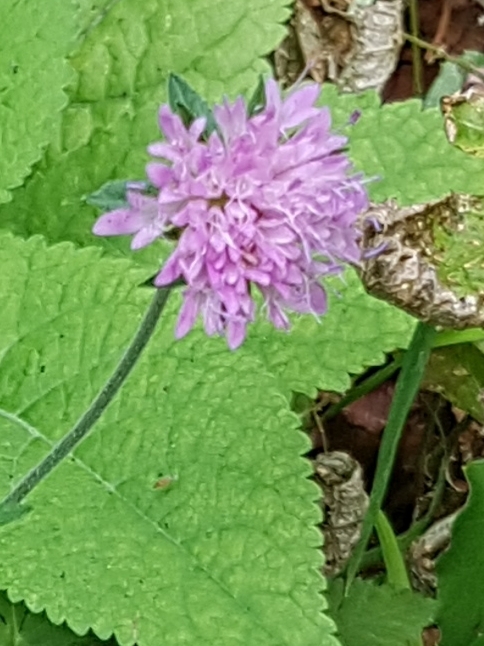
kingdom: Plantae
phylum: Tracheophyta
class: Magnoliopsida
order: Dipsacales
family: Caprifoliaceae
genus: Knautia
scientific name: Knautia drymeia
